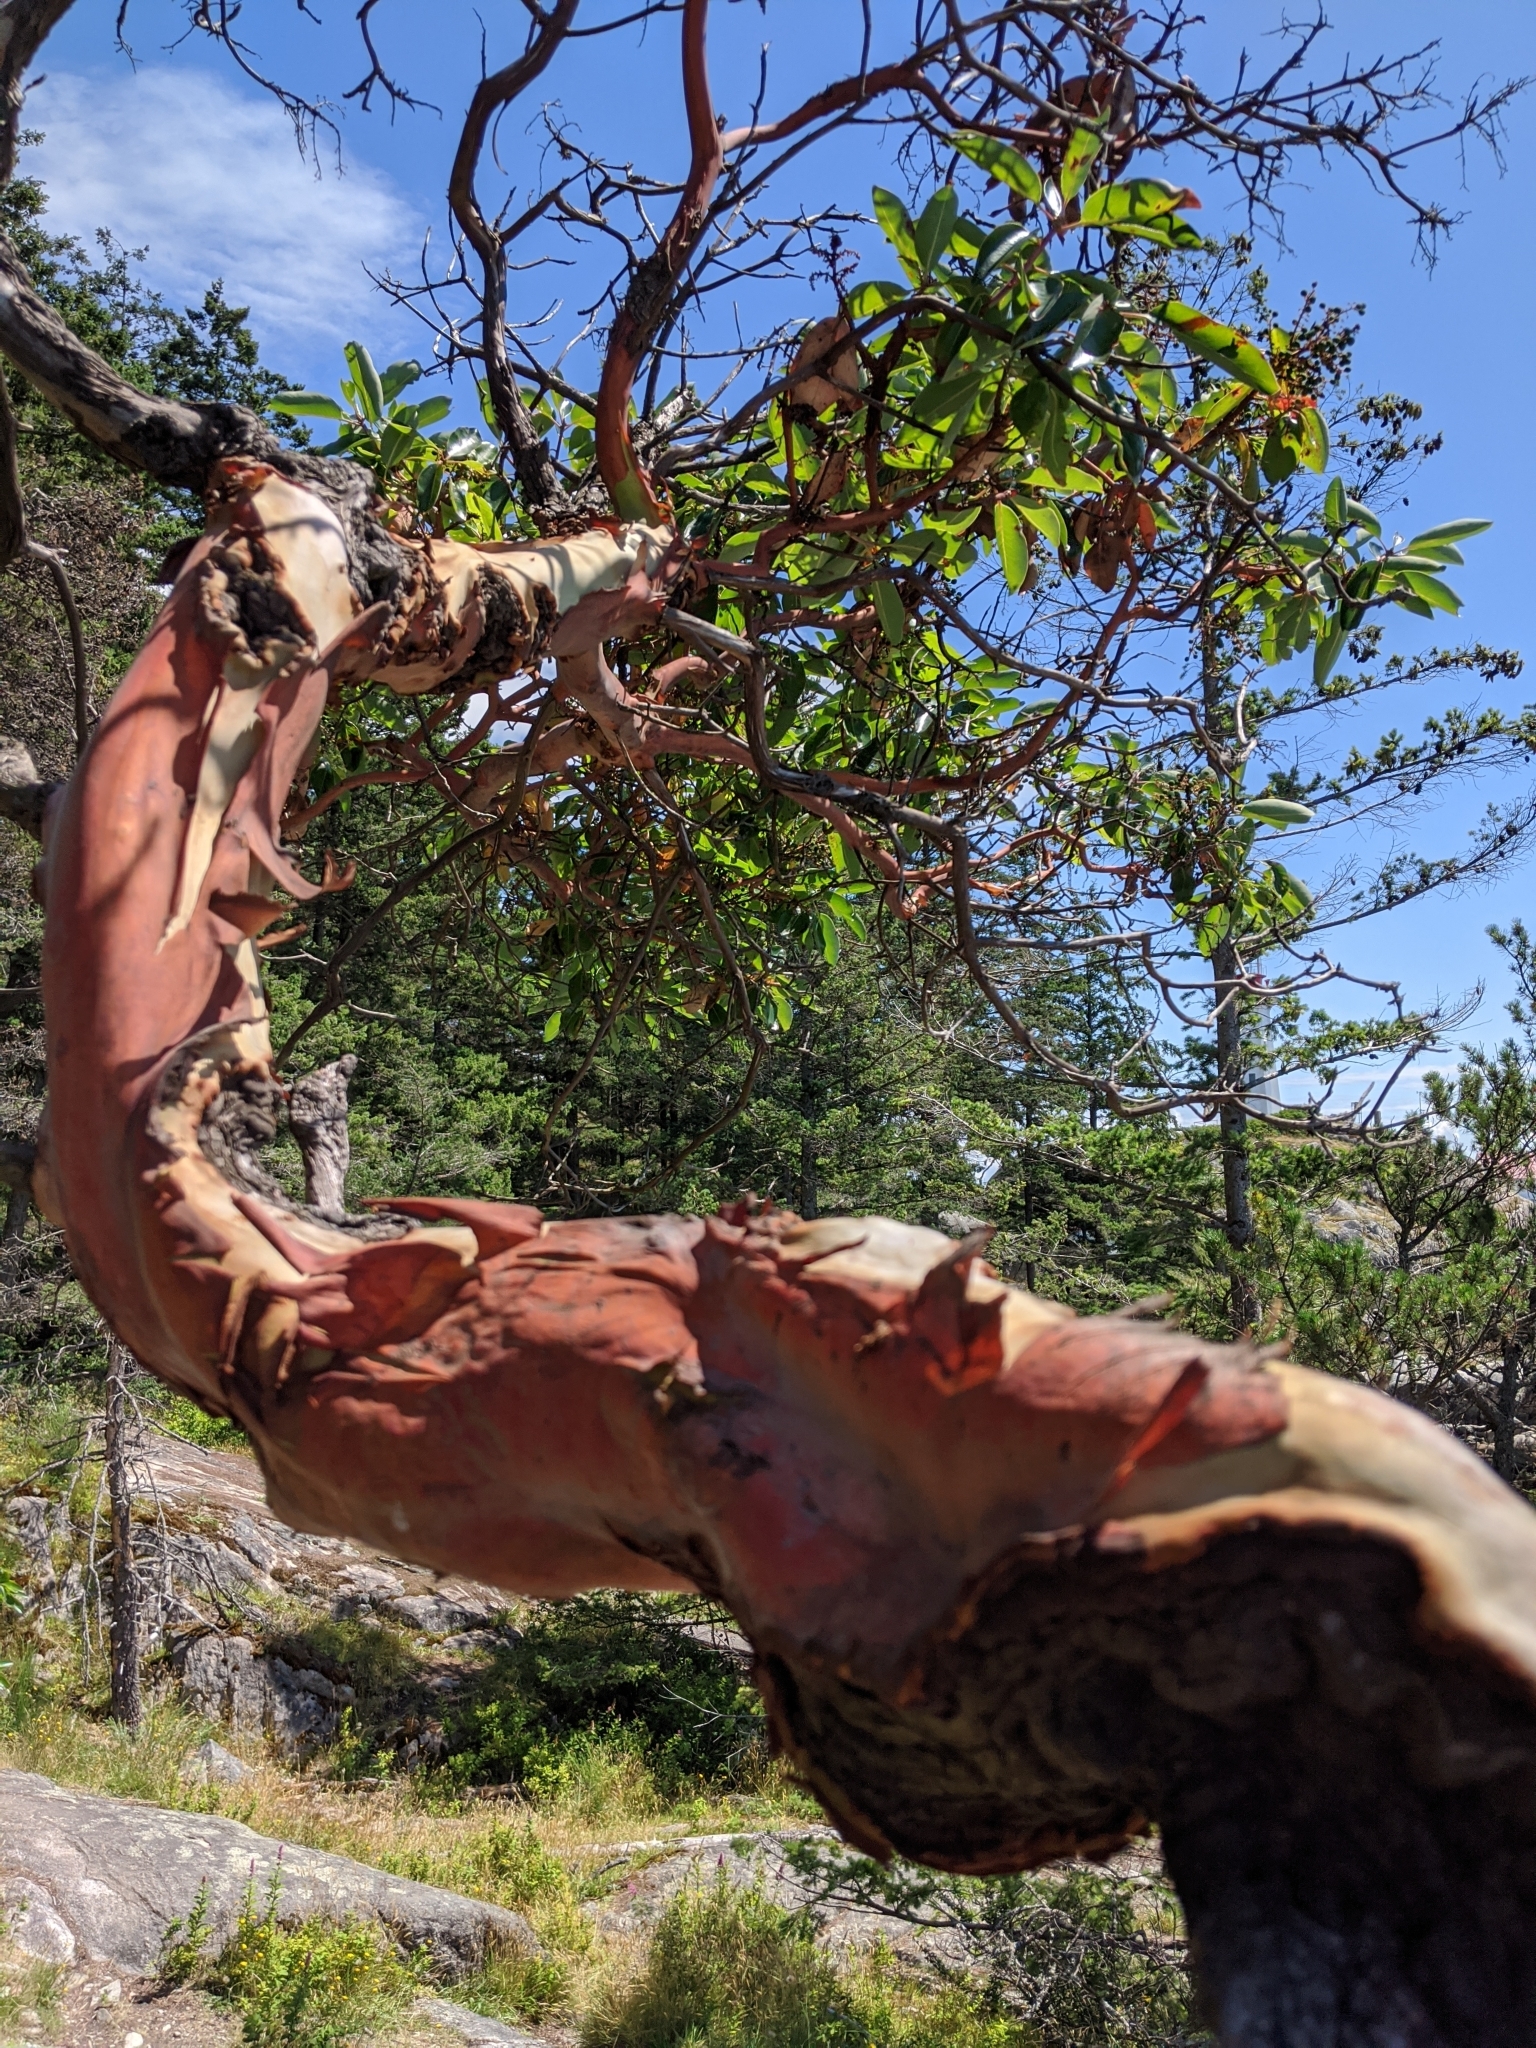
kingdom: Plantae
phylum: Tracheophyta
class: Magnoliopsida
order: Ericales
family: Ericaceae
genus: Arbutus
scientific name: Arbutus menziesii
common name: Pacific madrone
